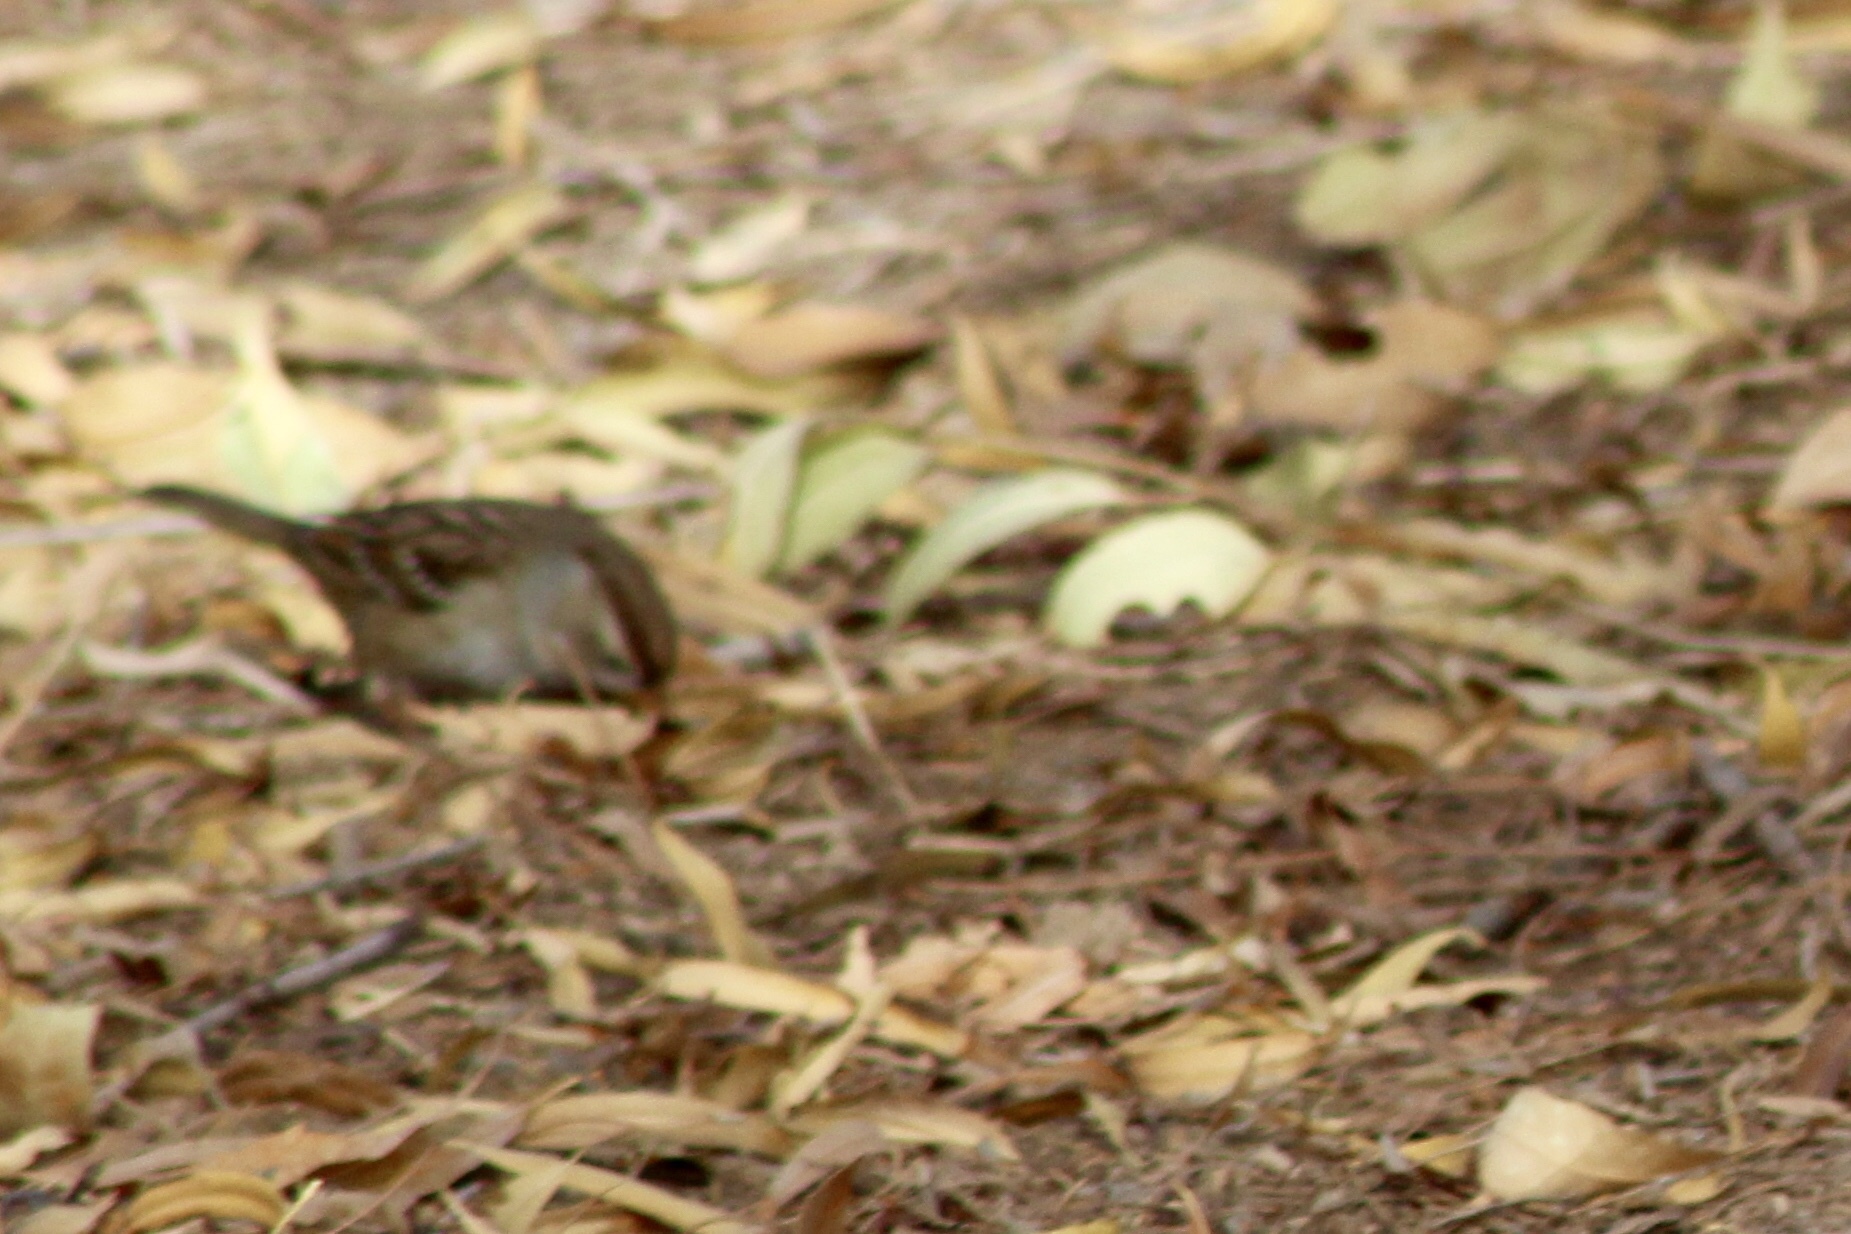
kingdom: Animalia
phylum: Chordata
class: Aves
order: Passeriformes
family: Passerellidae
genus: Zonotrichia
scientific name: Zonotrichia leucophrys
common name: White-crowned sparrow
